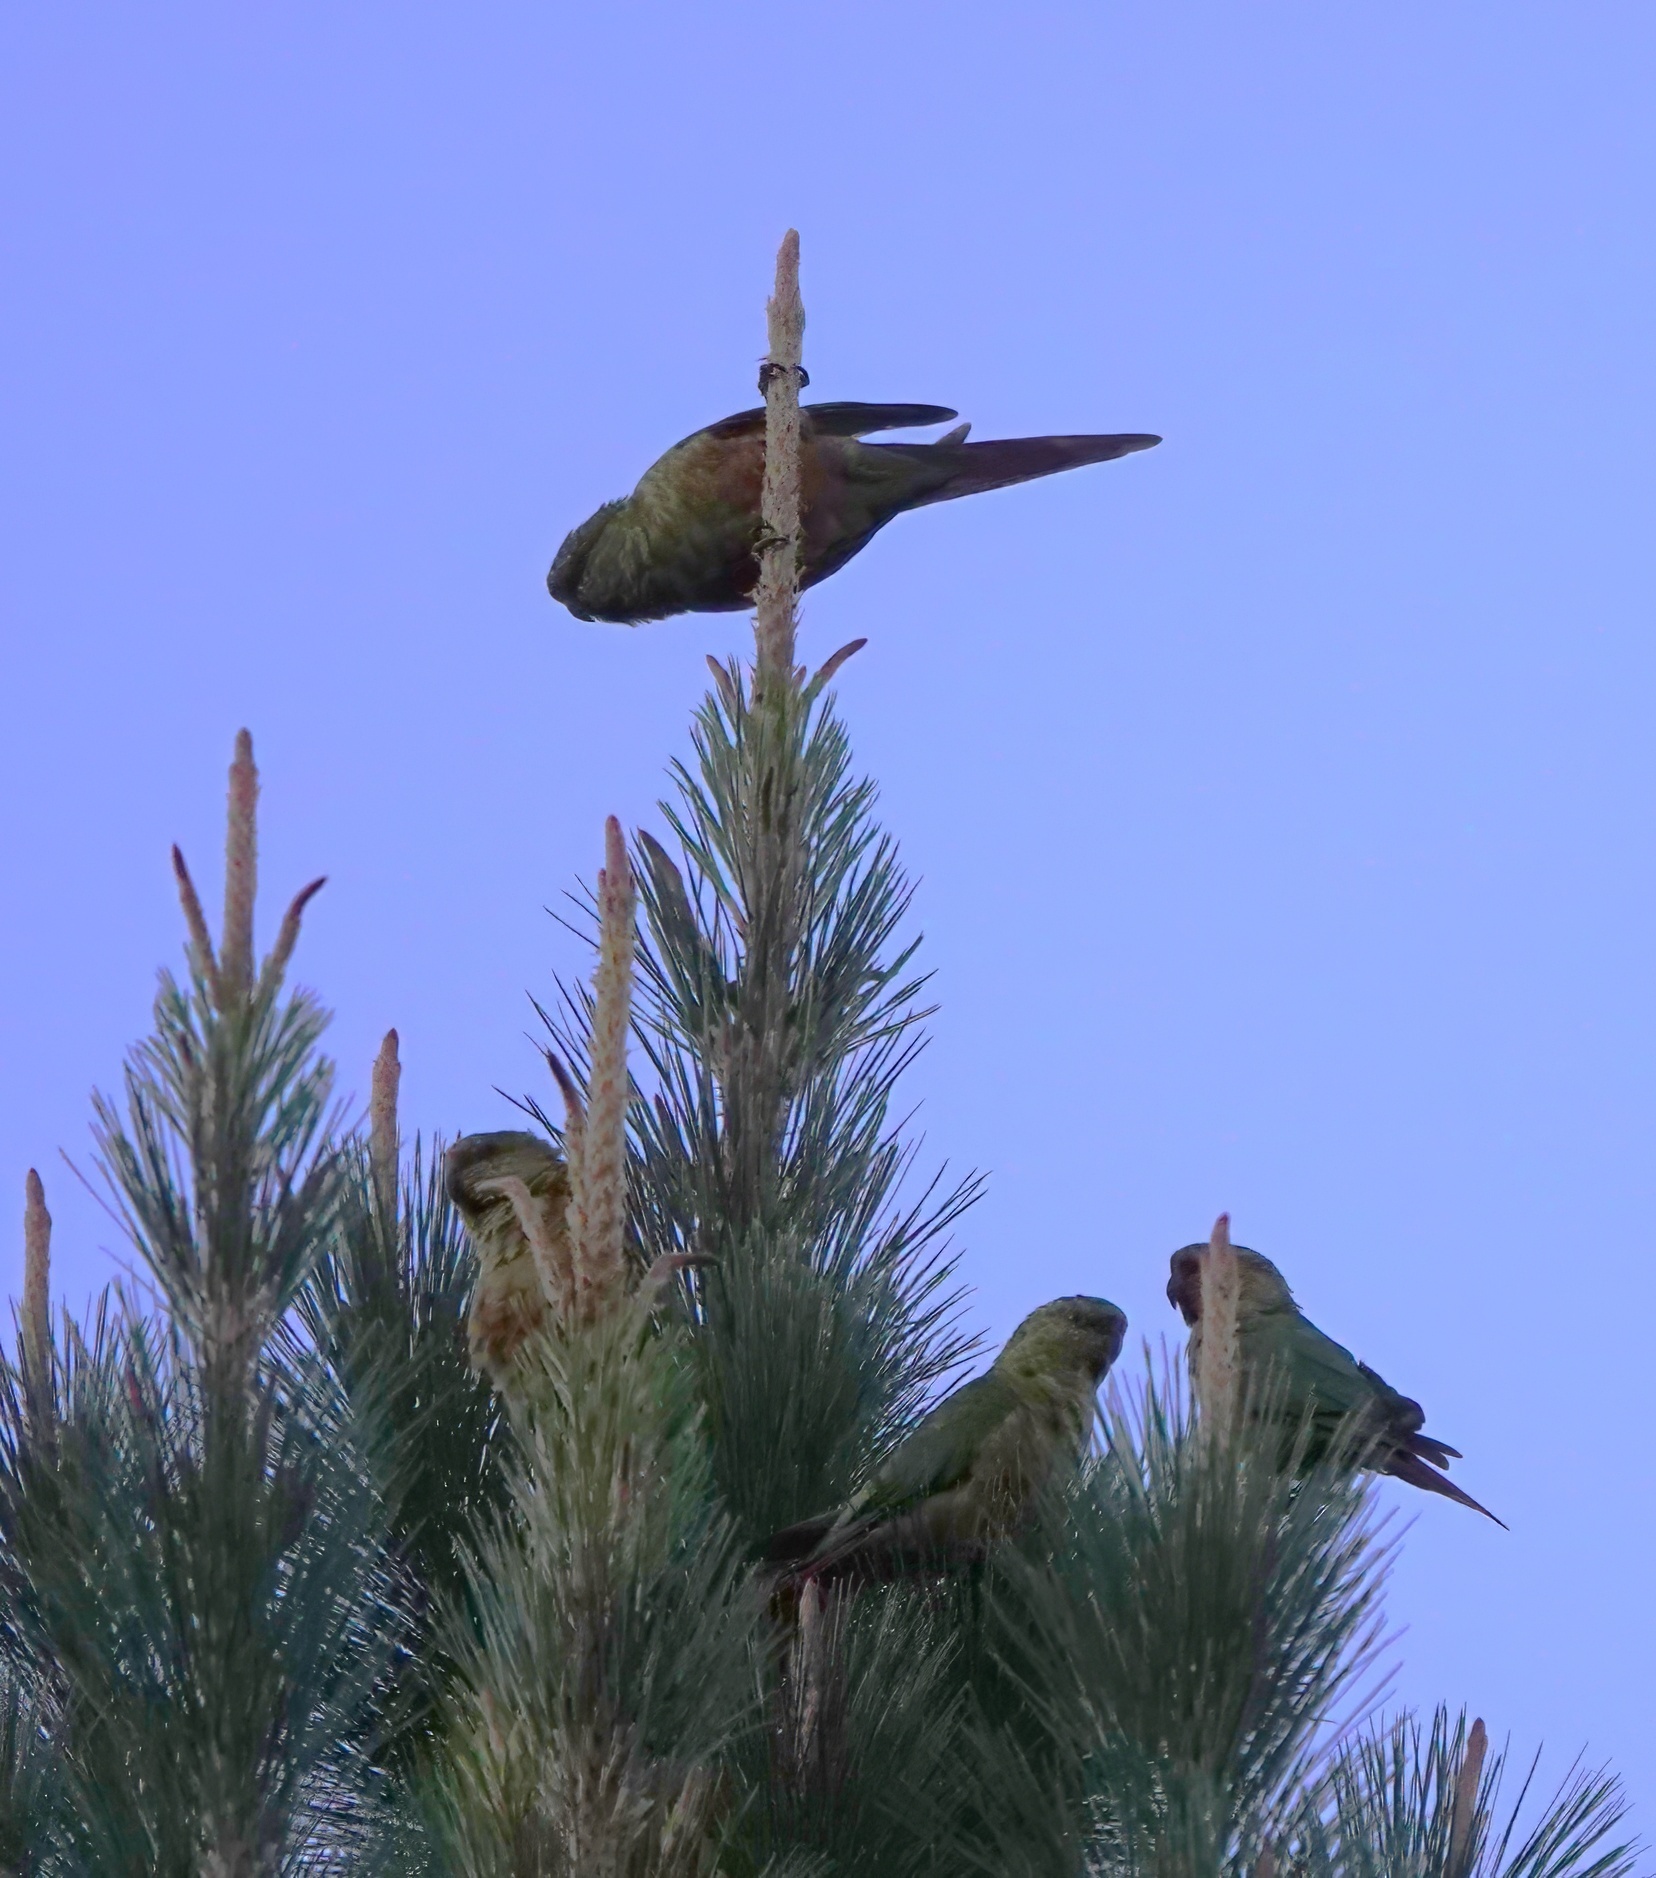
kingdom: Animalia
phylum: Chordata
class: Aves
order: Psittaciformes
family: Psittacidae
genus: Enicognathus
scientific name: Enicognathus ferrugineus
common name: Austral parakeet
